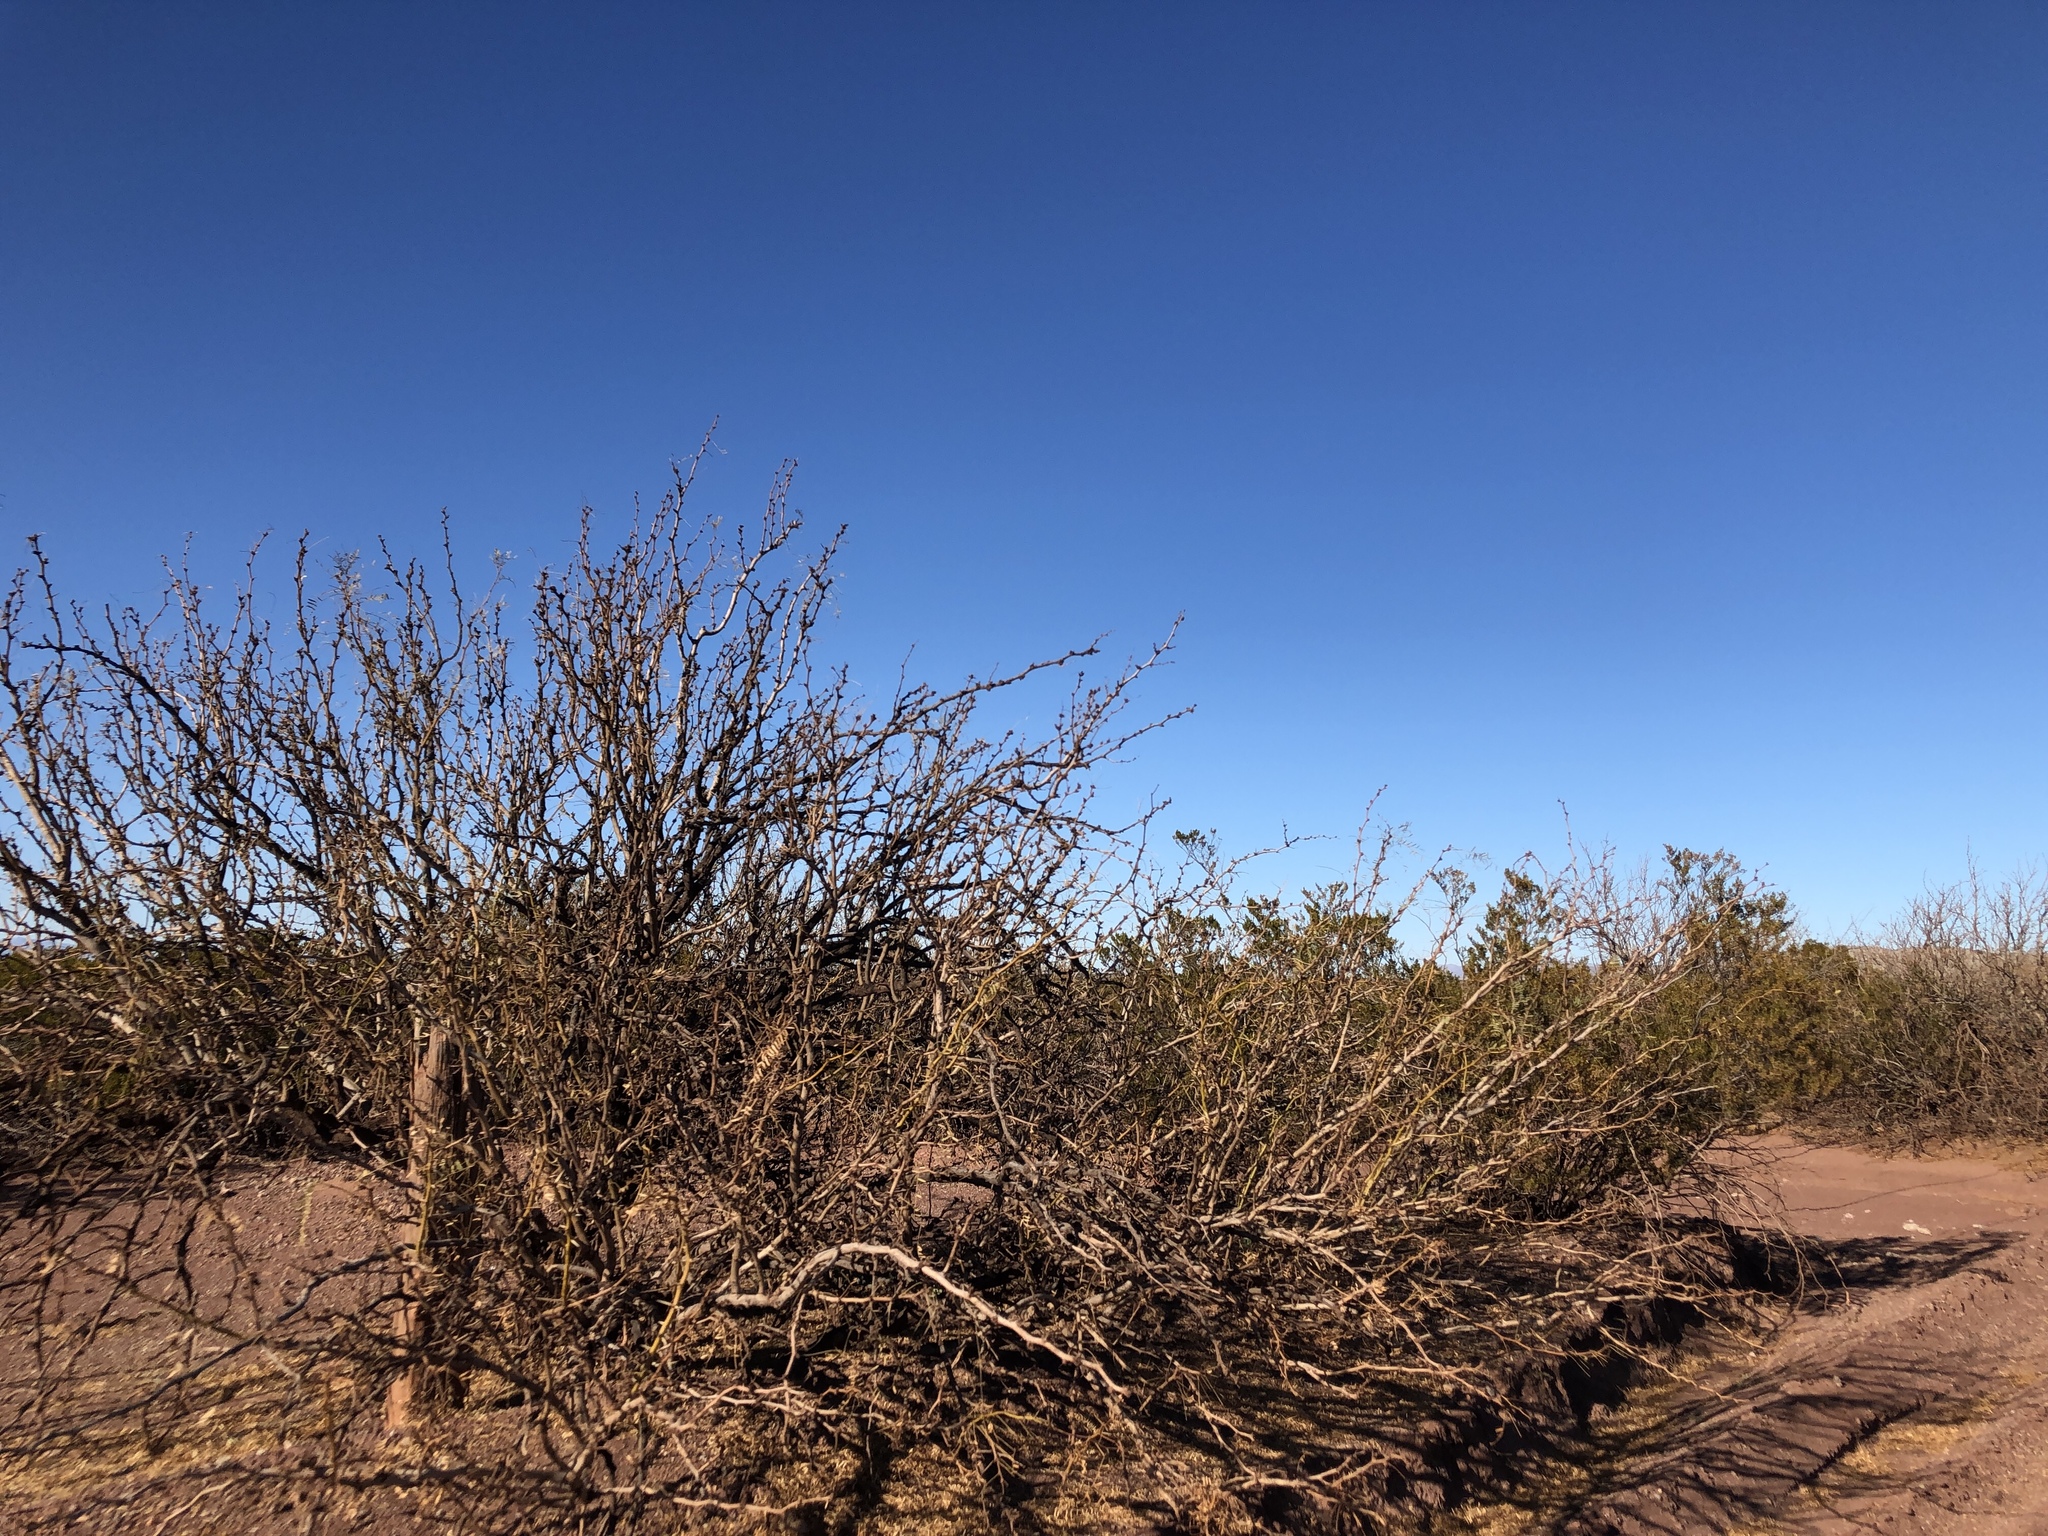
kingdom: Plantae
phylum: Tracheophyta
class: Magnoliopsida
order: Fabales
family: Fabaceae
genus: Prosopis
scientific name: Prosopis glandulosa
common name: Honey mesquite
